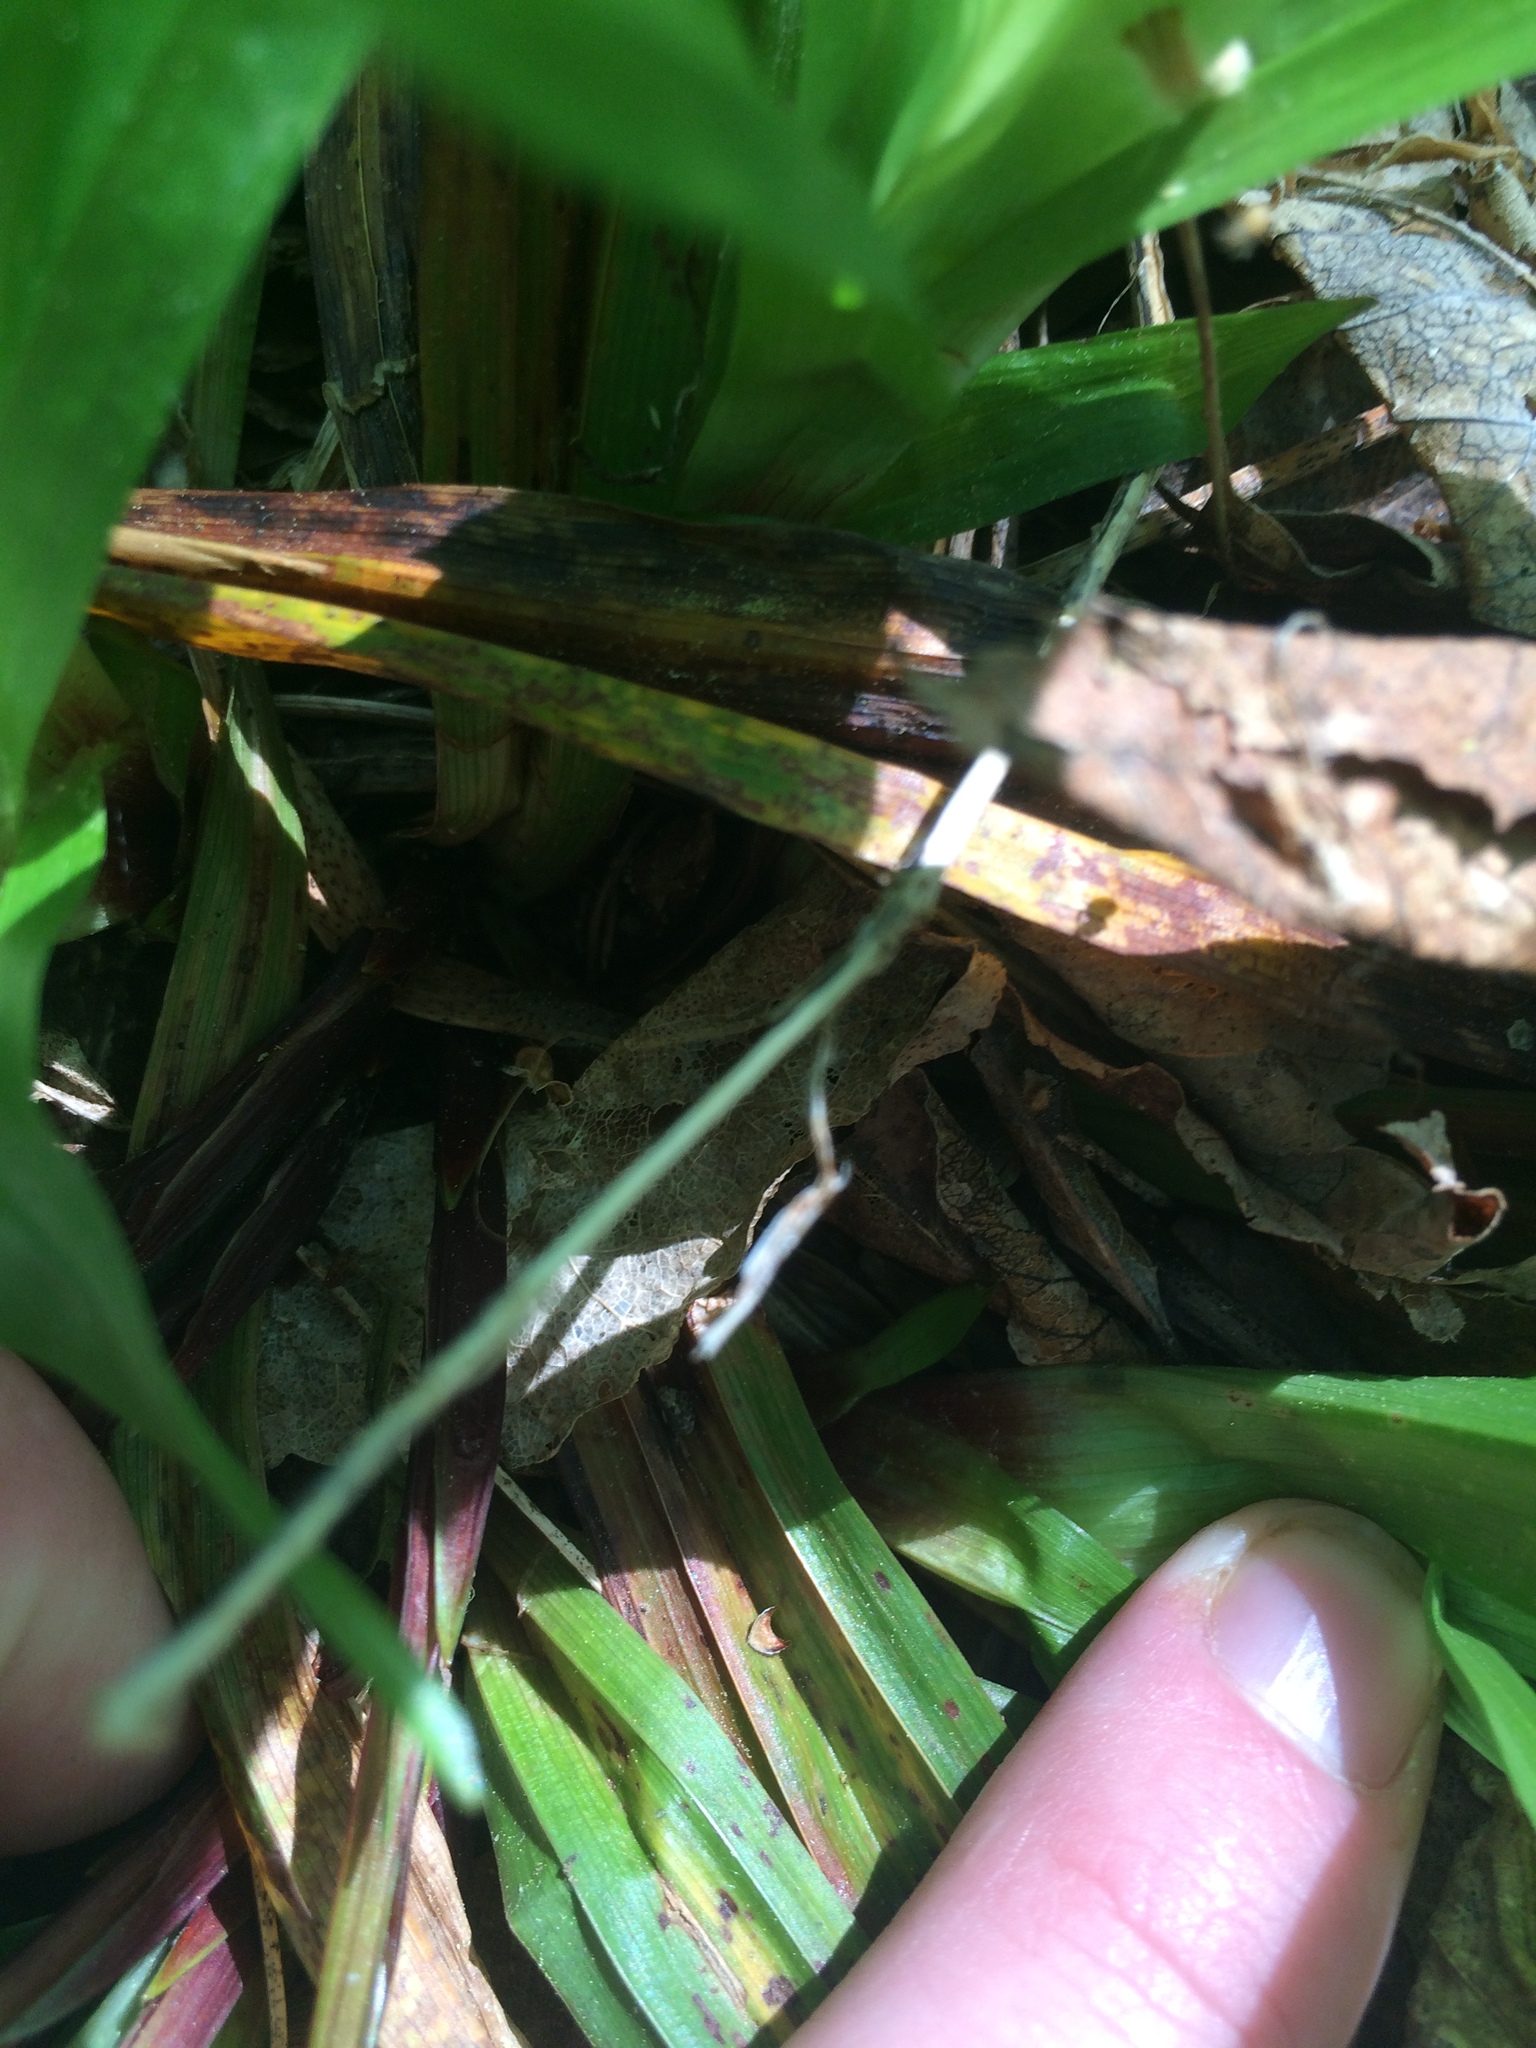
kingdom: Plantae
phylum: Tracheophyta
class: Liliopsida
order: Poales
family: Cyperaceae
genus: Carex
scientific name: Carex plantaginea
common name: Plantain-leaved sedge
